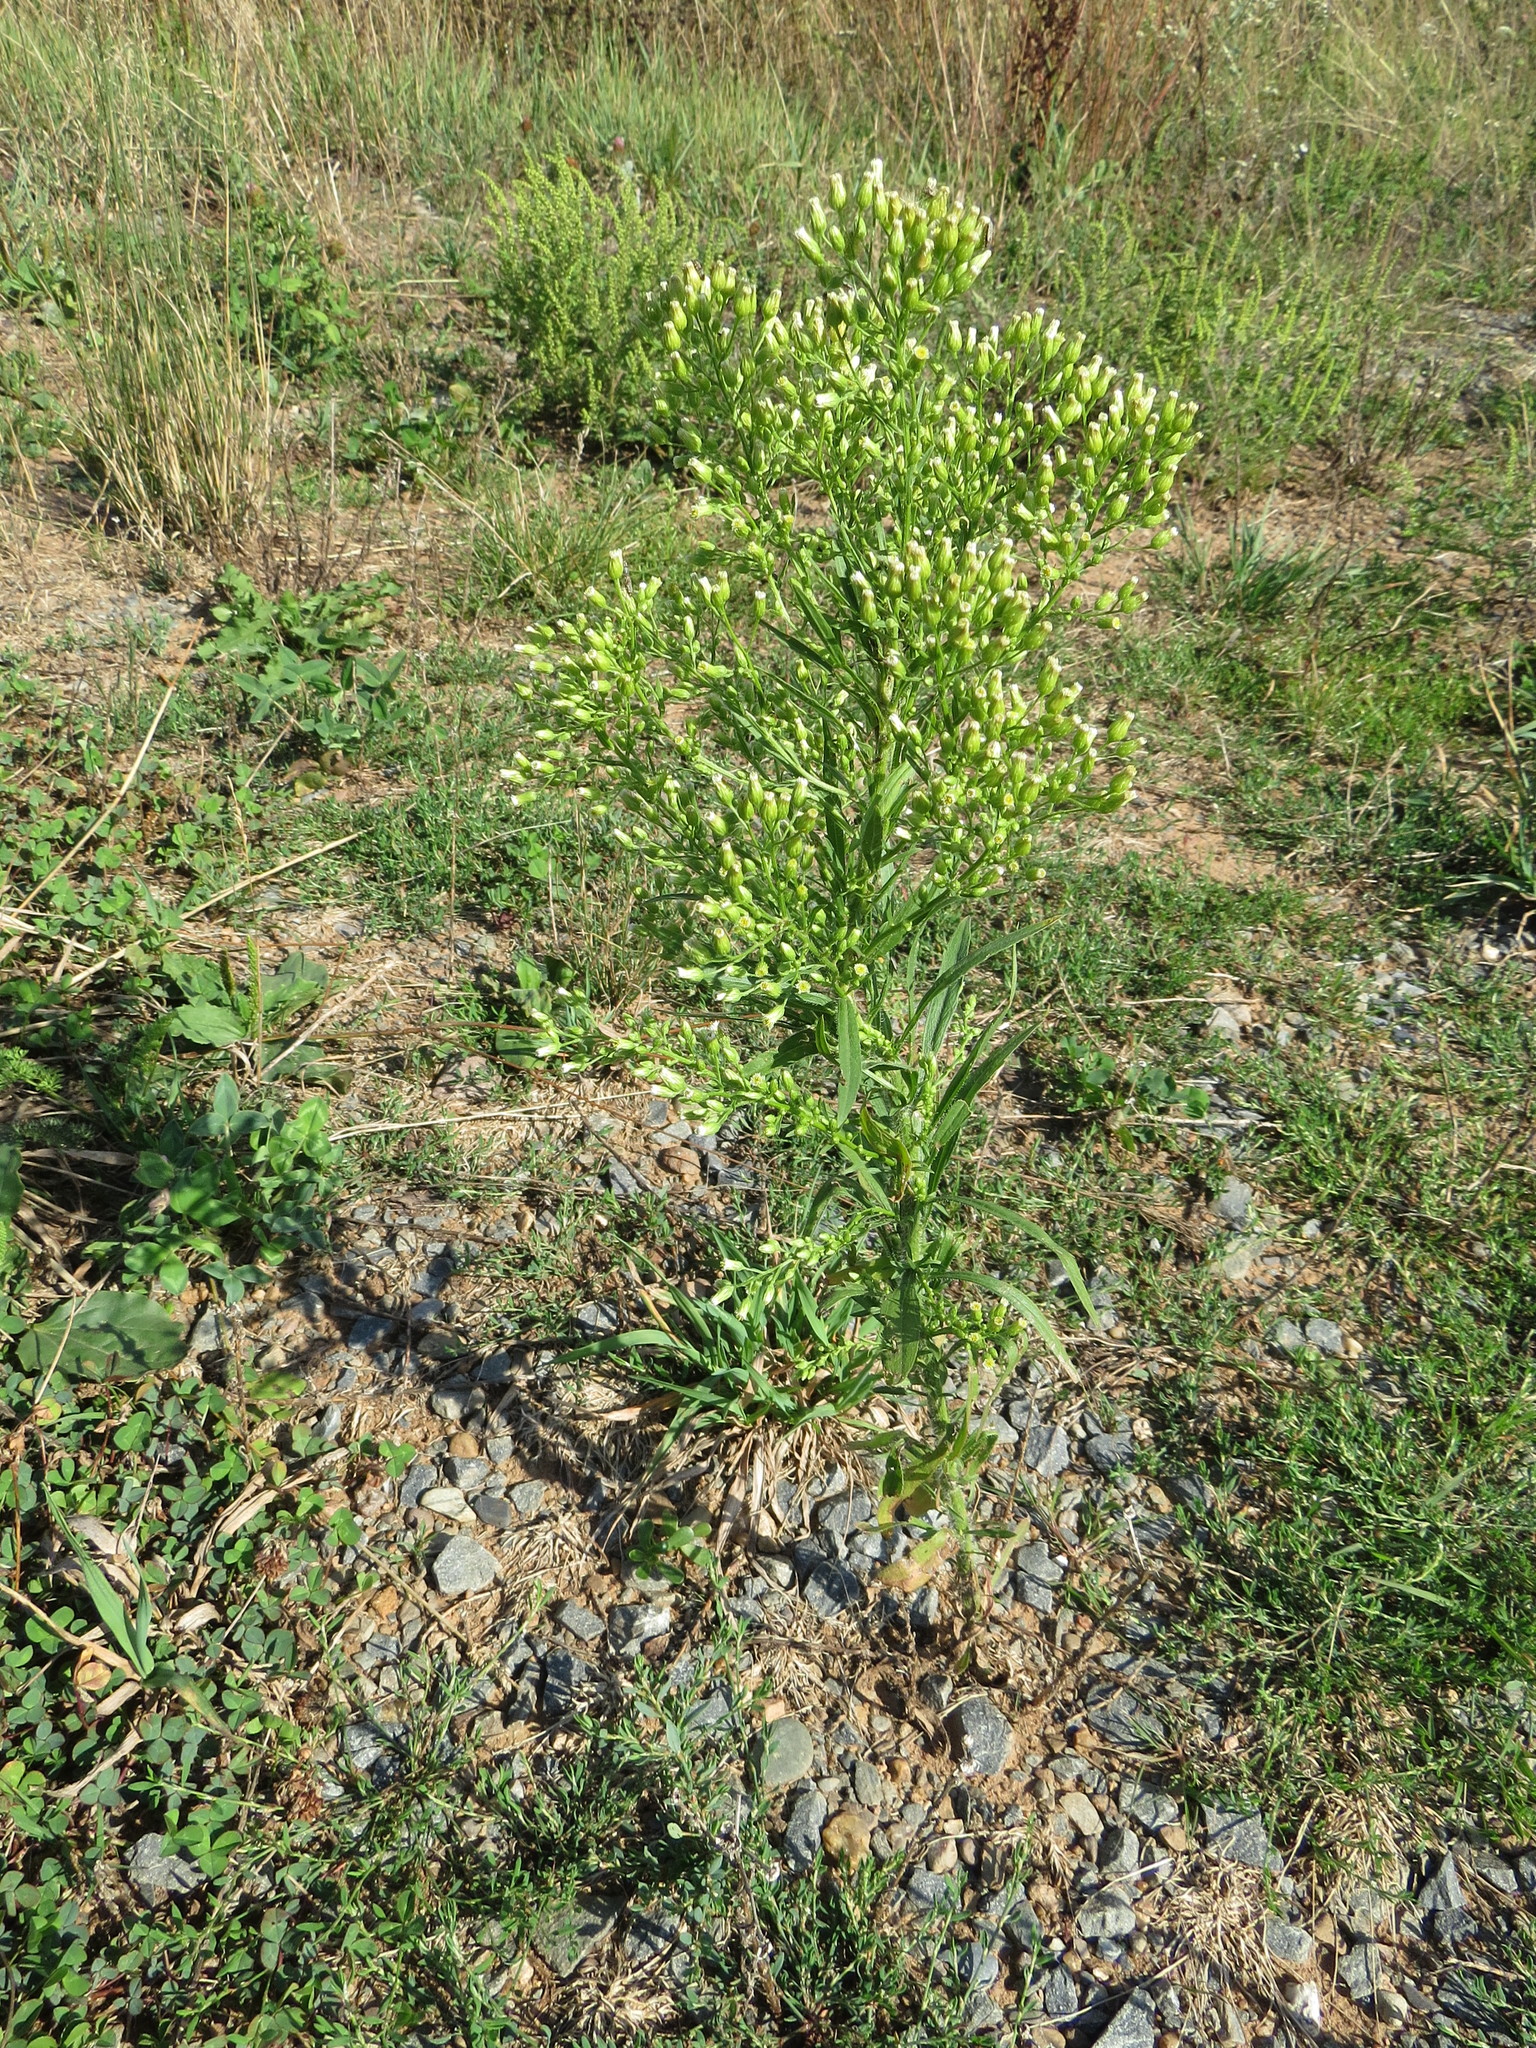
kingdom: Plantae
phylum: Tracheophyta
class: Magnoliopsida
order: Asterales
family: Asteraceae
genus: Erigeron
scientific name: Erigeron canadensis
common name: Canadian fleabane
